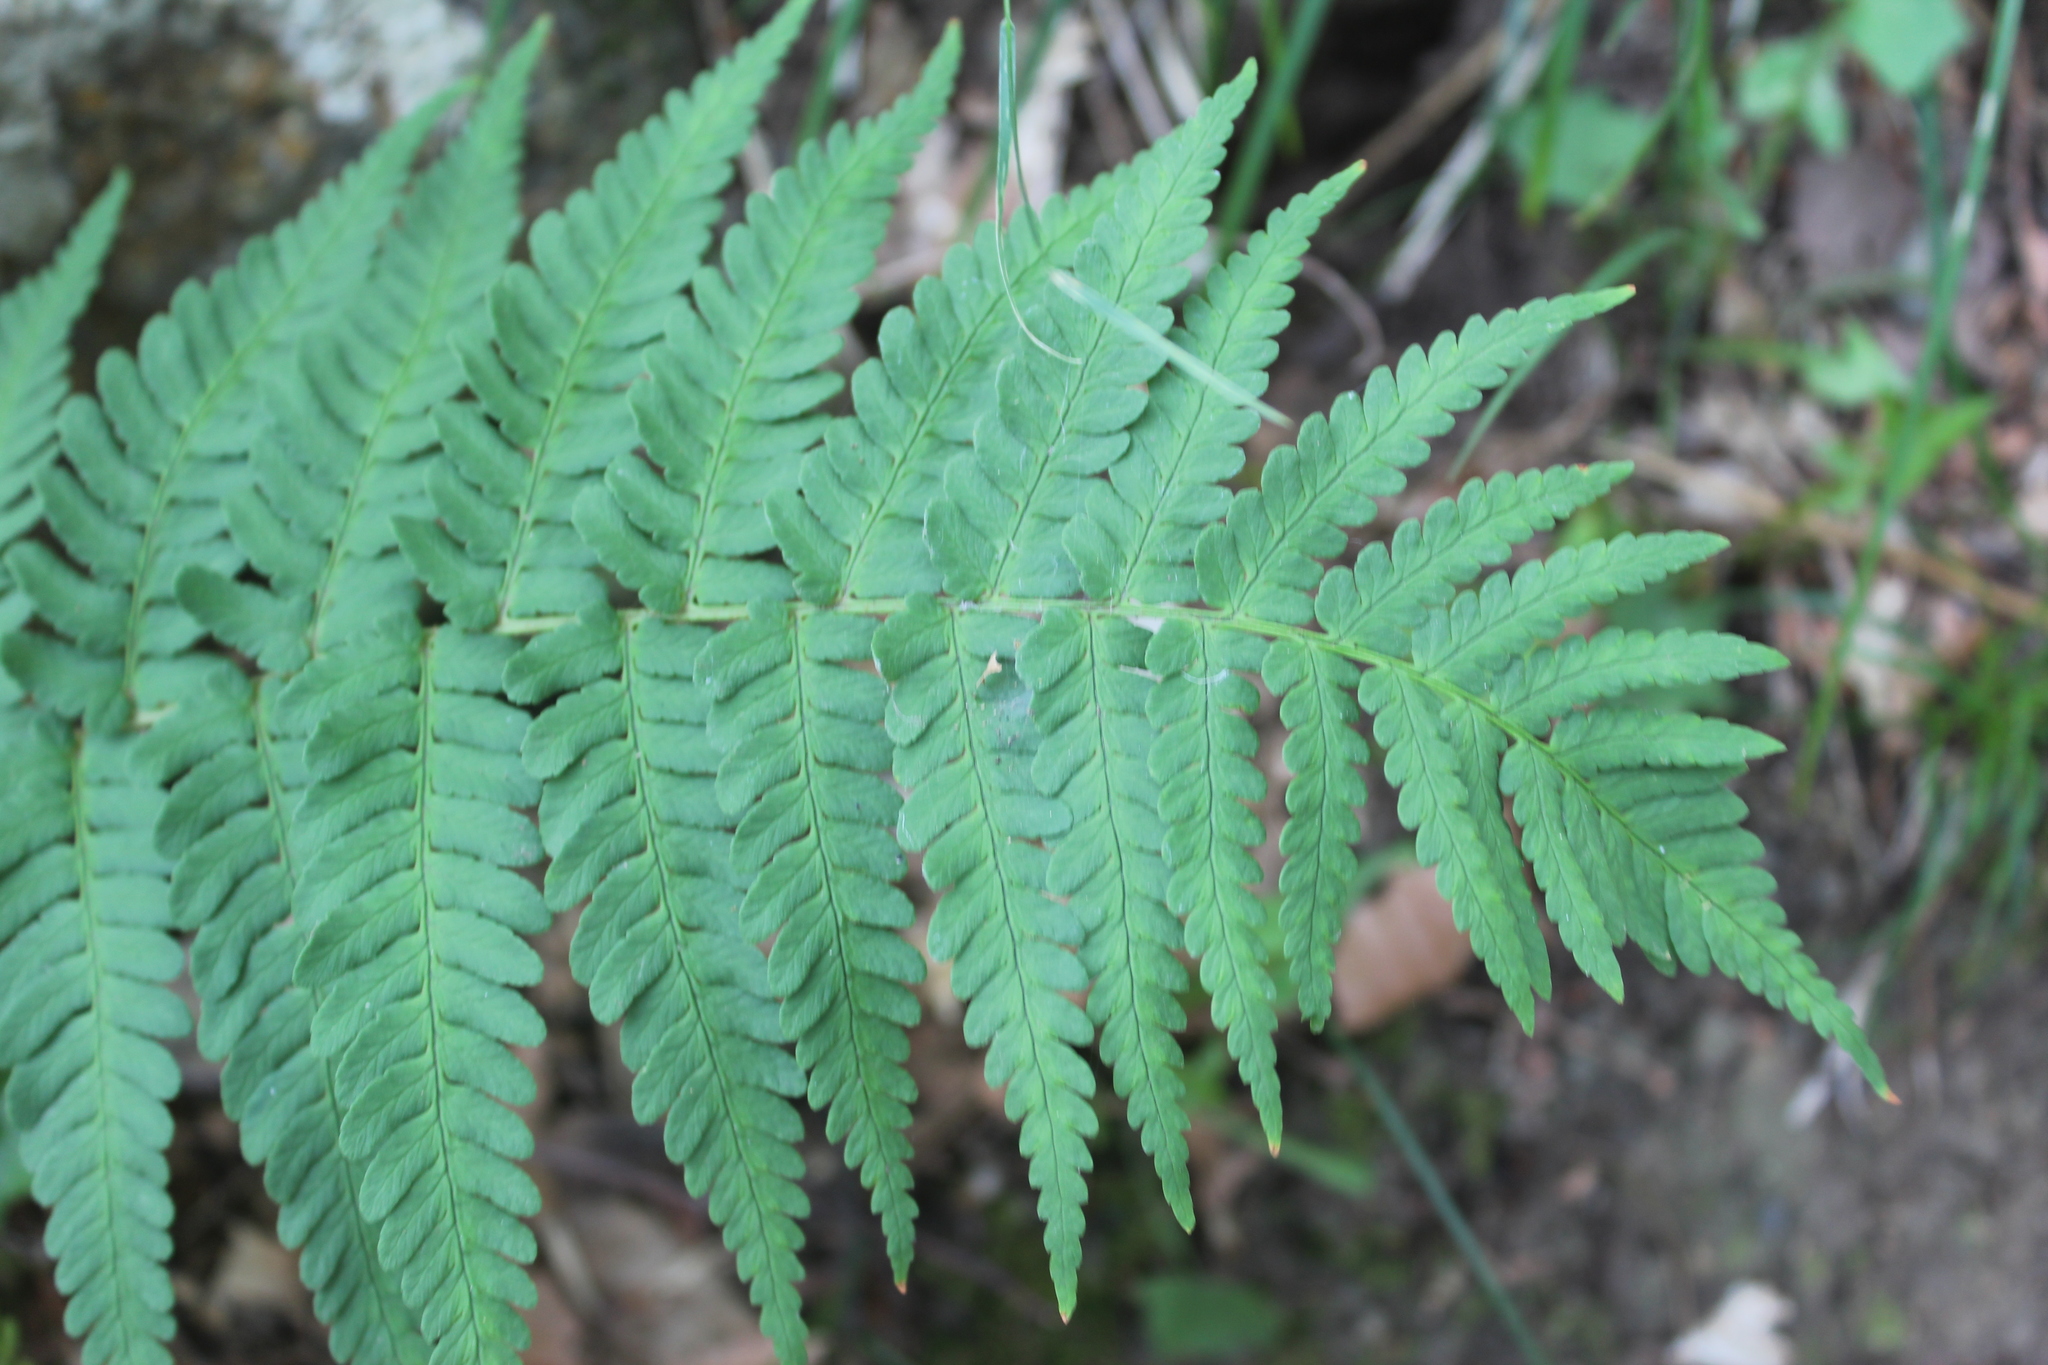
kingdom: Plantae
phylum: Tracheophyta
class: Polypodiopsida
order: Polypodiales
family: Dryopteridaceae
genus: Dryopteris
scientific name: Dryopteris marginalis
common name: Marginal wood fern
